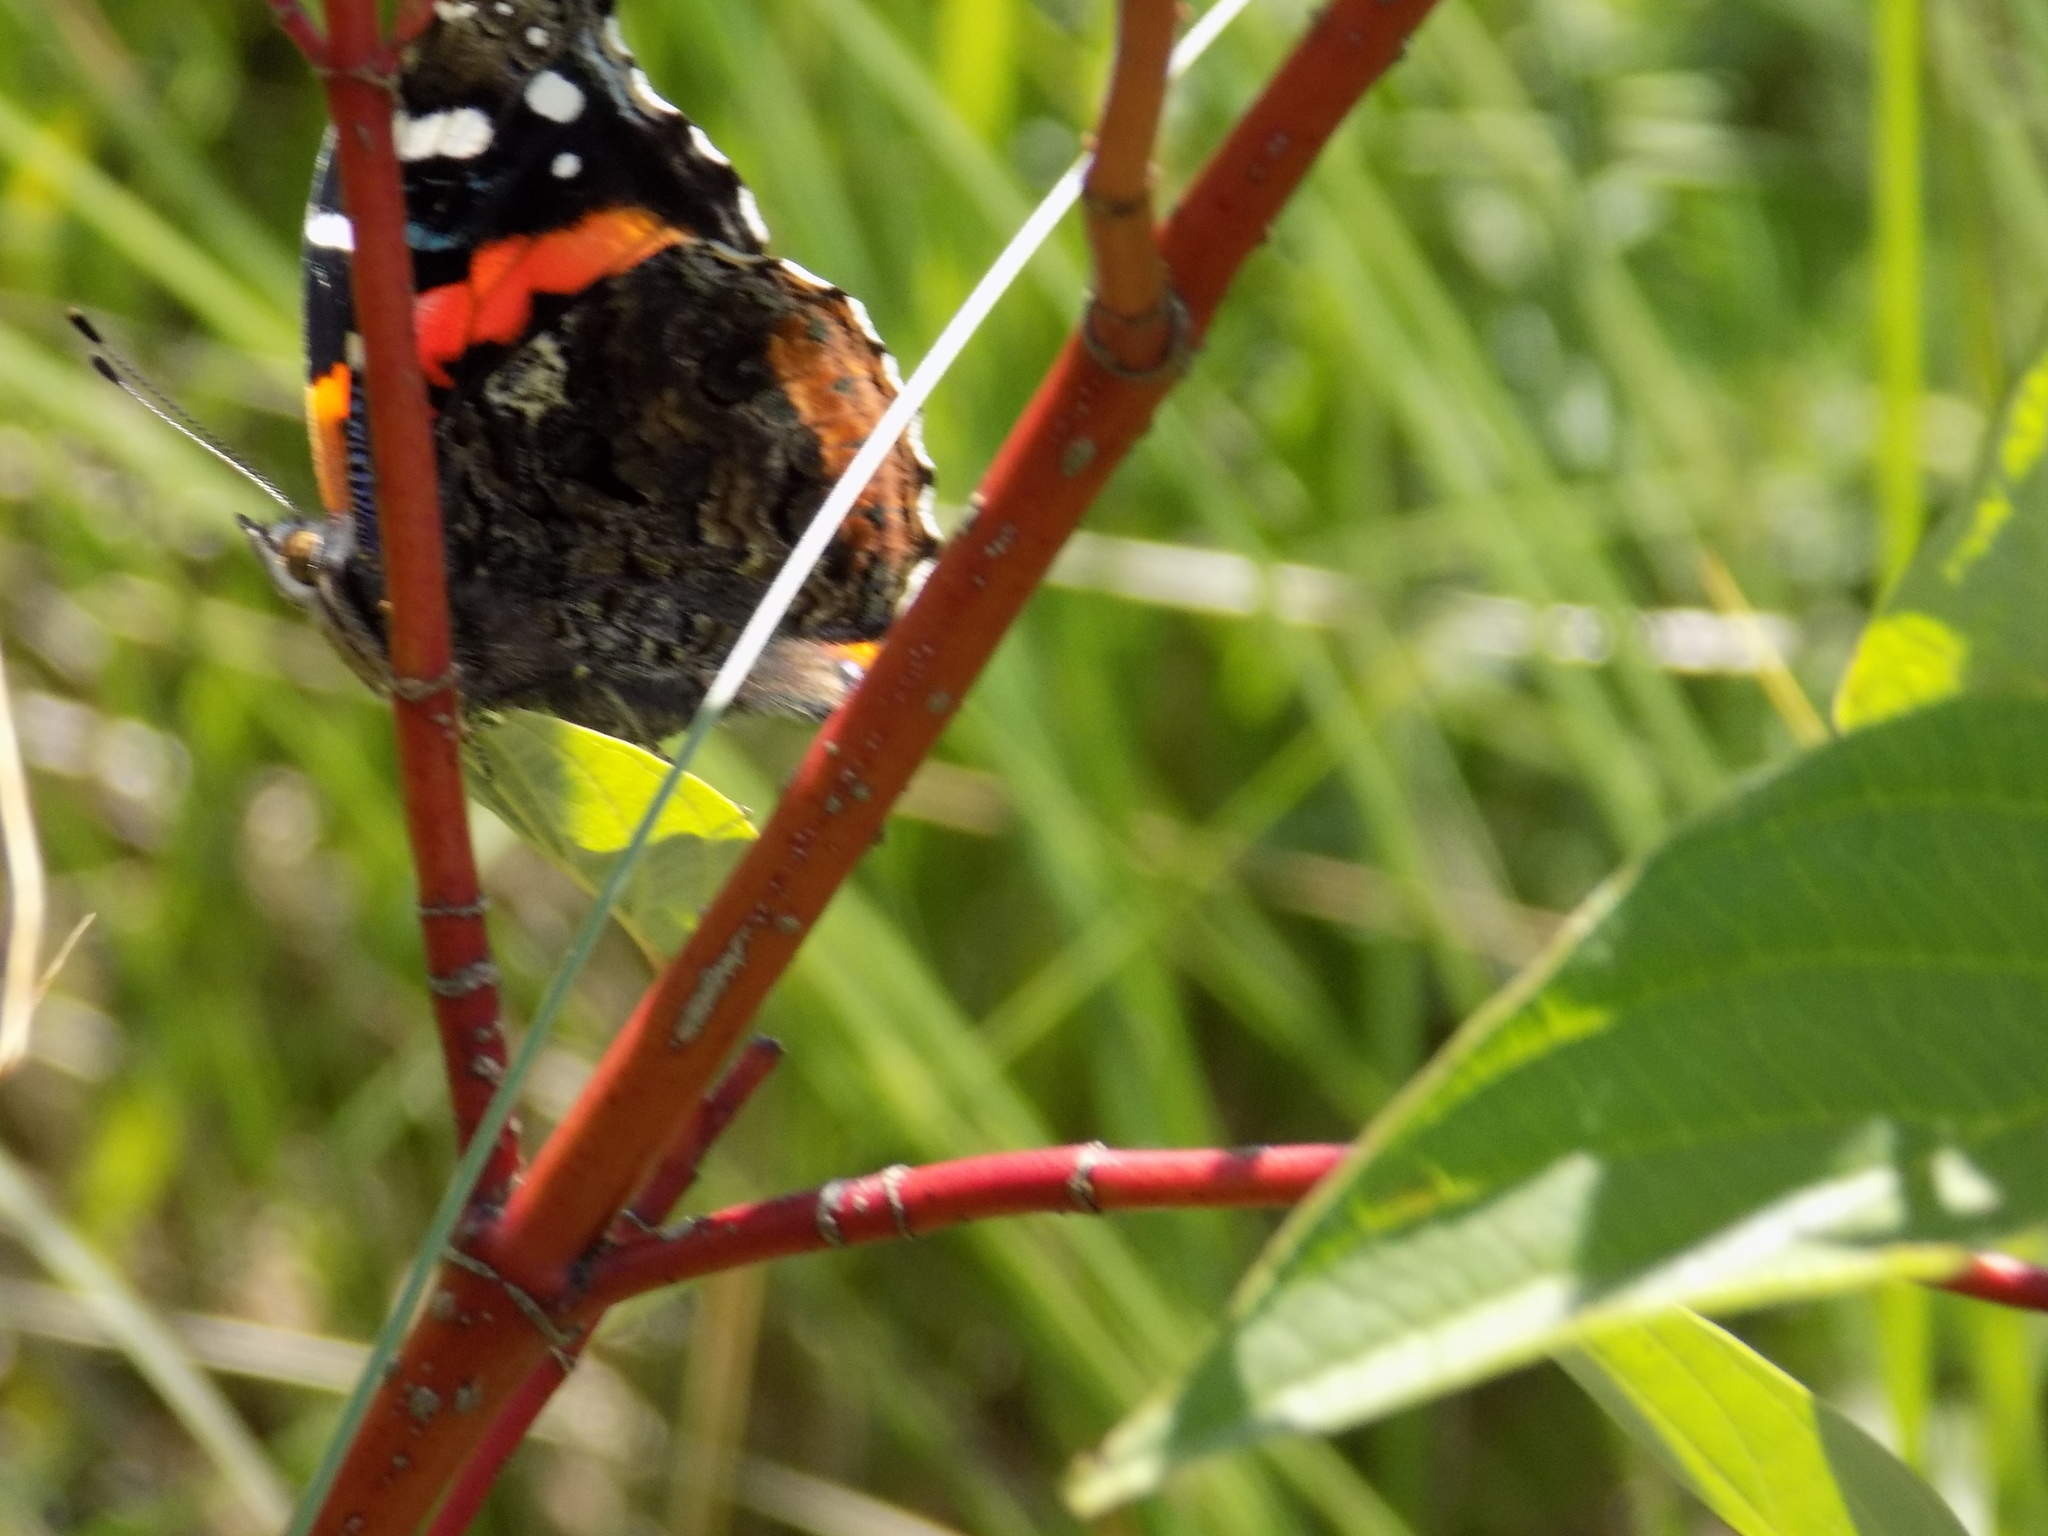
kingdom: Animalia
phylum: Arthropoda
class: Insecta
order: Lepidoptera
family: Nymphalidae
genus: Vanessa
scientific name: Vanessa atalanta
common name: Red admiral
